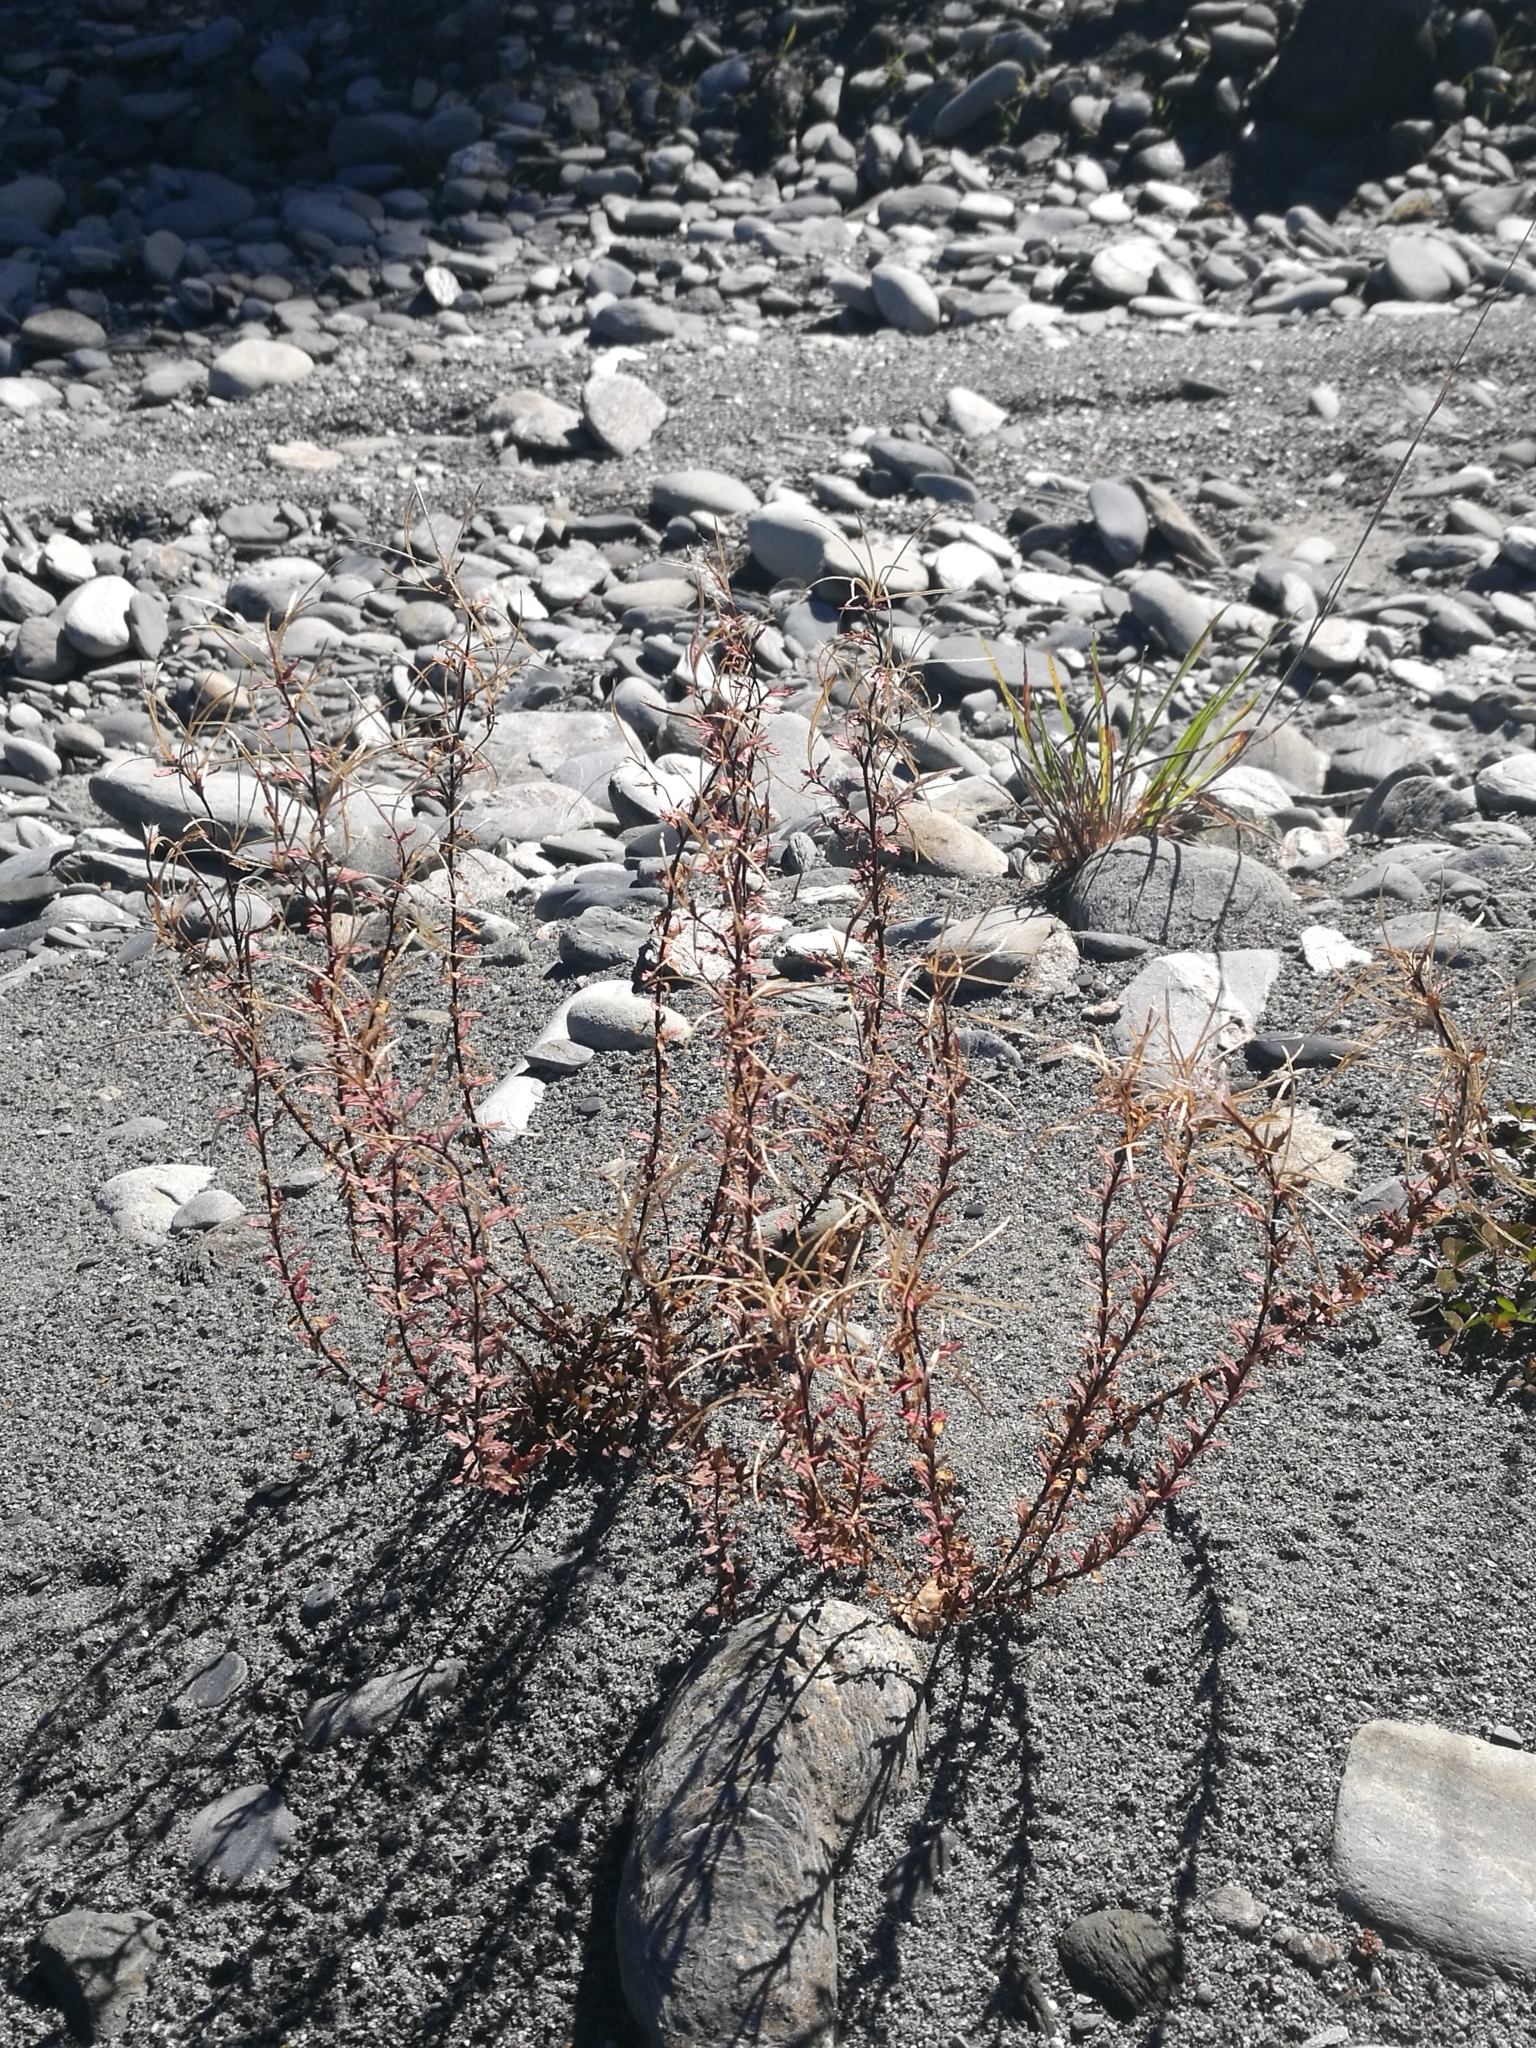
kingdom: Plantae
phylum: Tracheophyta
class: Magnoliopsida
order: Myrtales
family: Onagraceae
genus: Epilobium
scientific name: Epilobium melanocaulon
